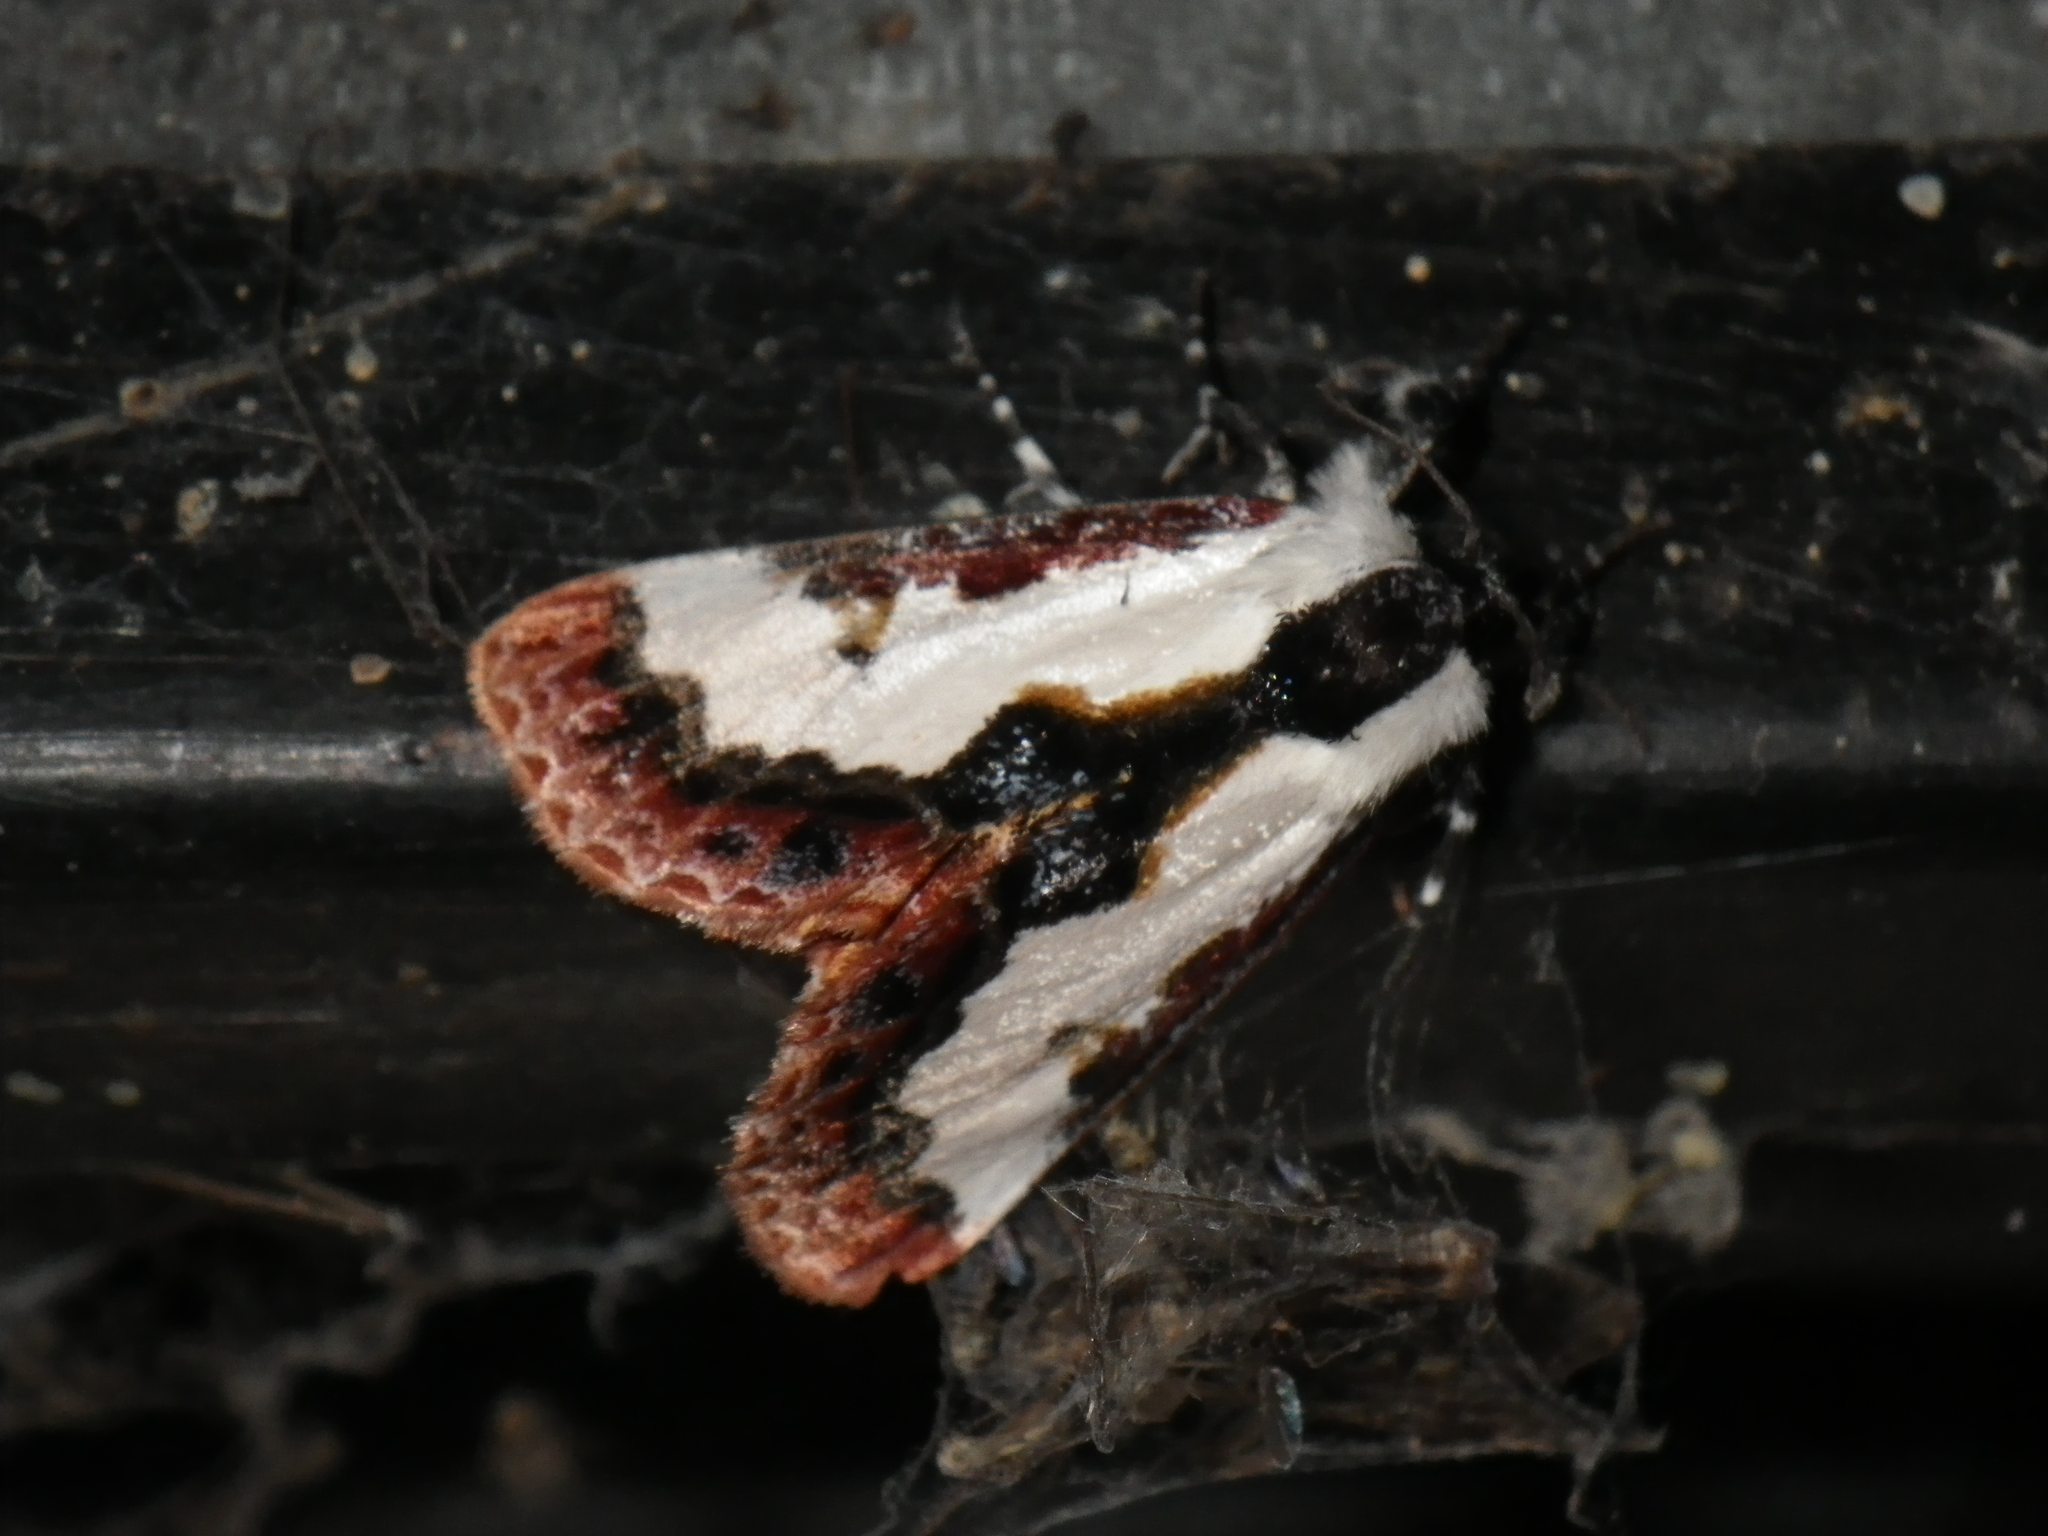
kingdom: Animalia
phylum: Arthropoda
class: Insecta
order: Lepidoptera
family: Noctuidae
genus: Eudryas
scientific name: Eudryas brevipennis
